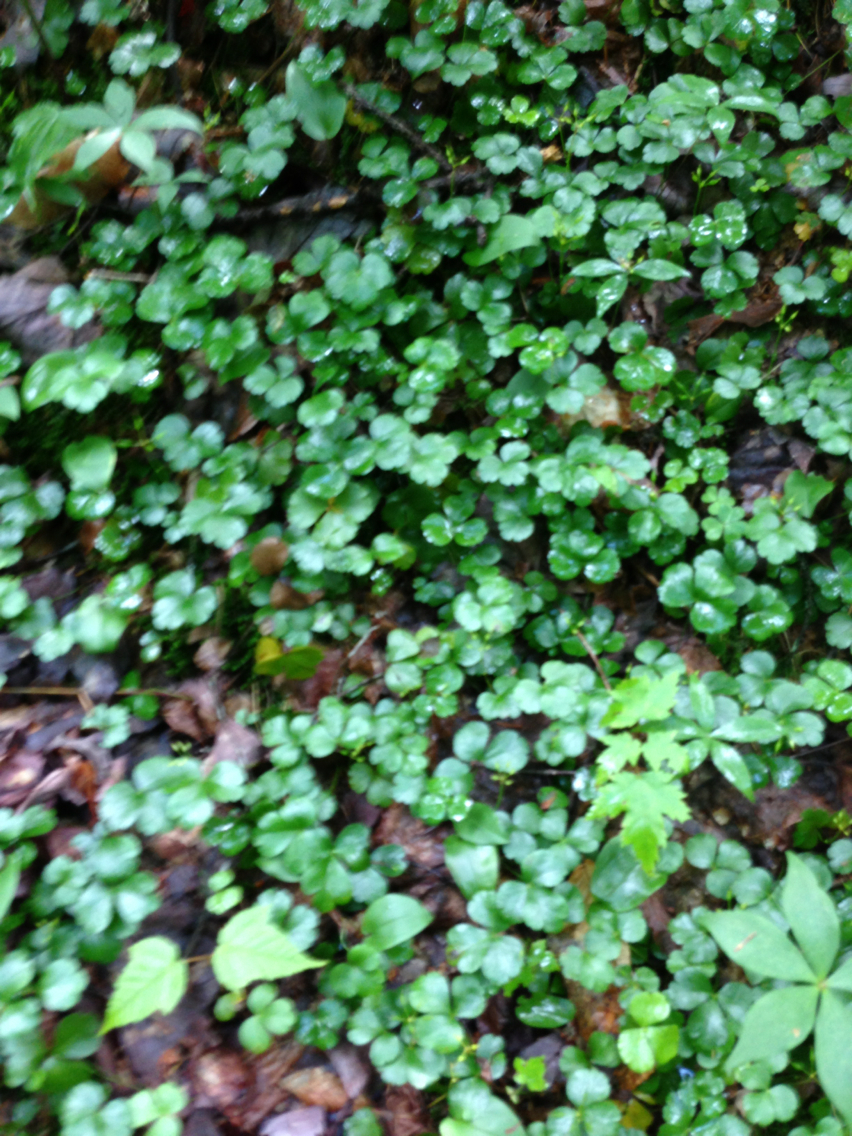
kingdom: Plantae
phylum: Tracheophyta
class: Magnoliopsida
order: Ranunculales
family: Ranunculaceae
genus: Coptis
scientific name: Coptis trifolia
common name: Canker-root
